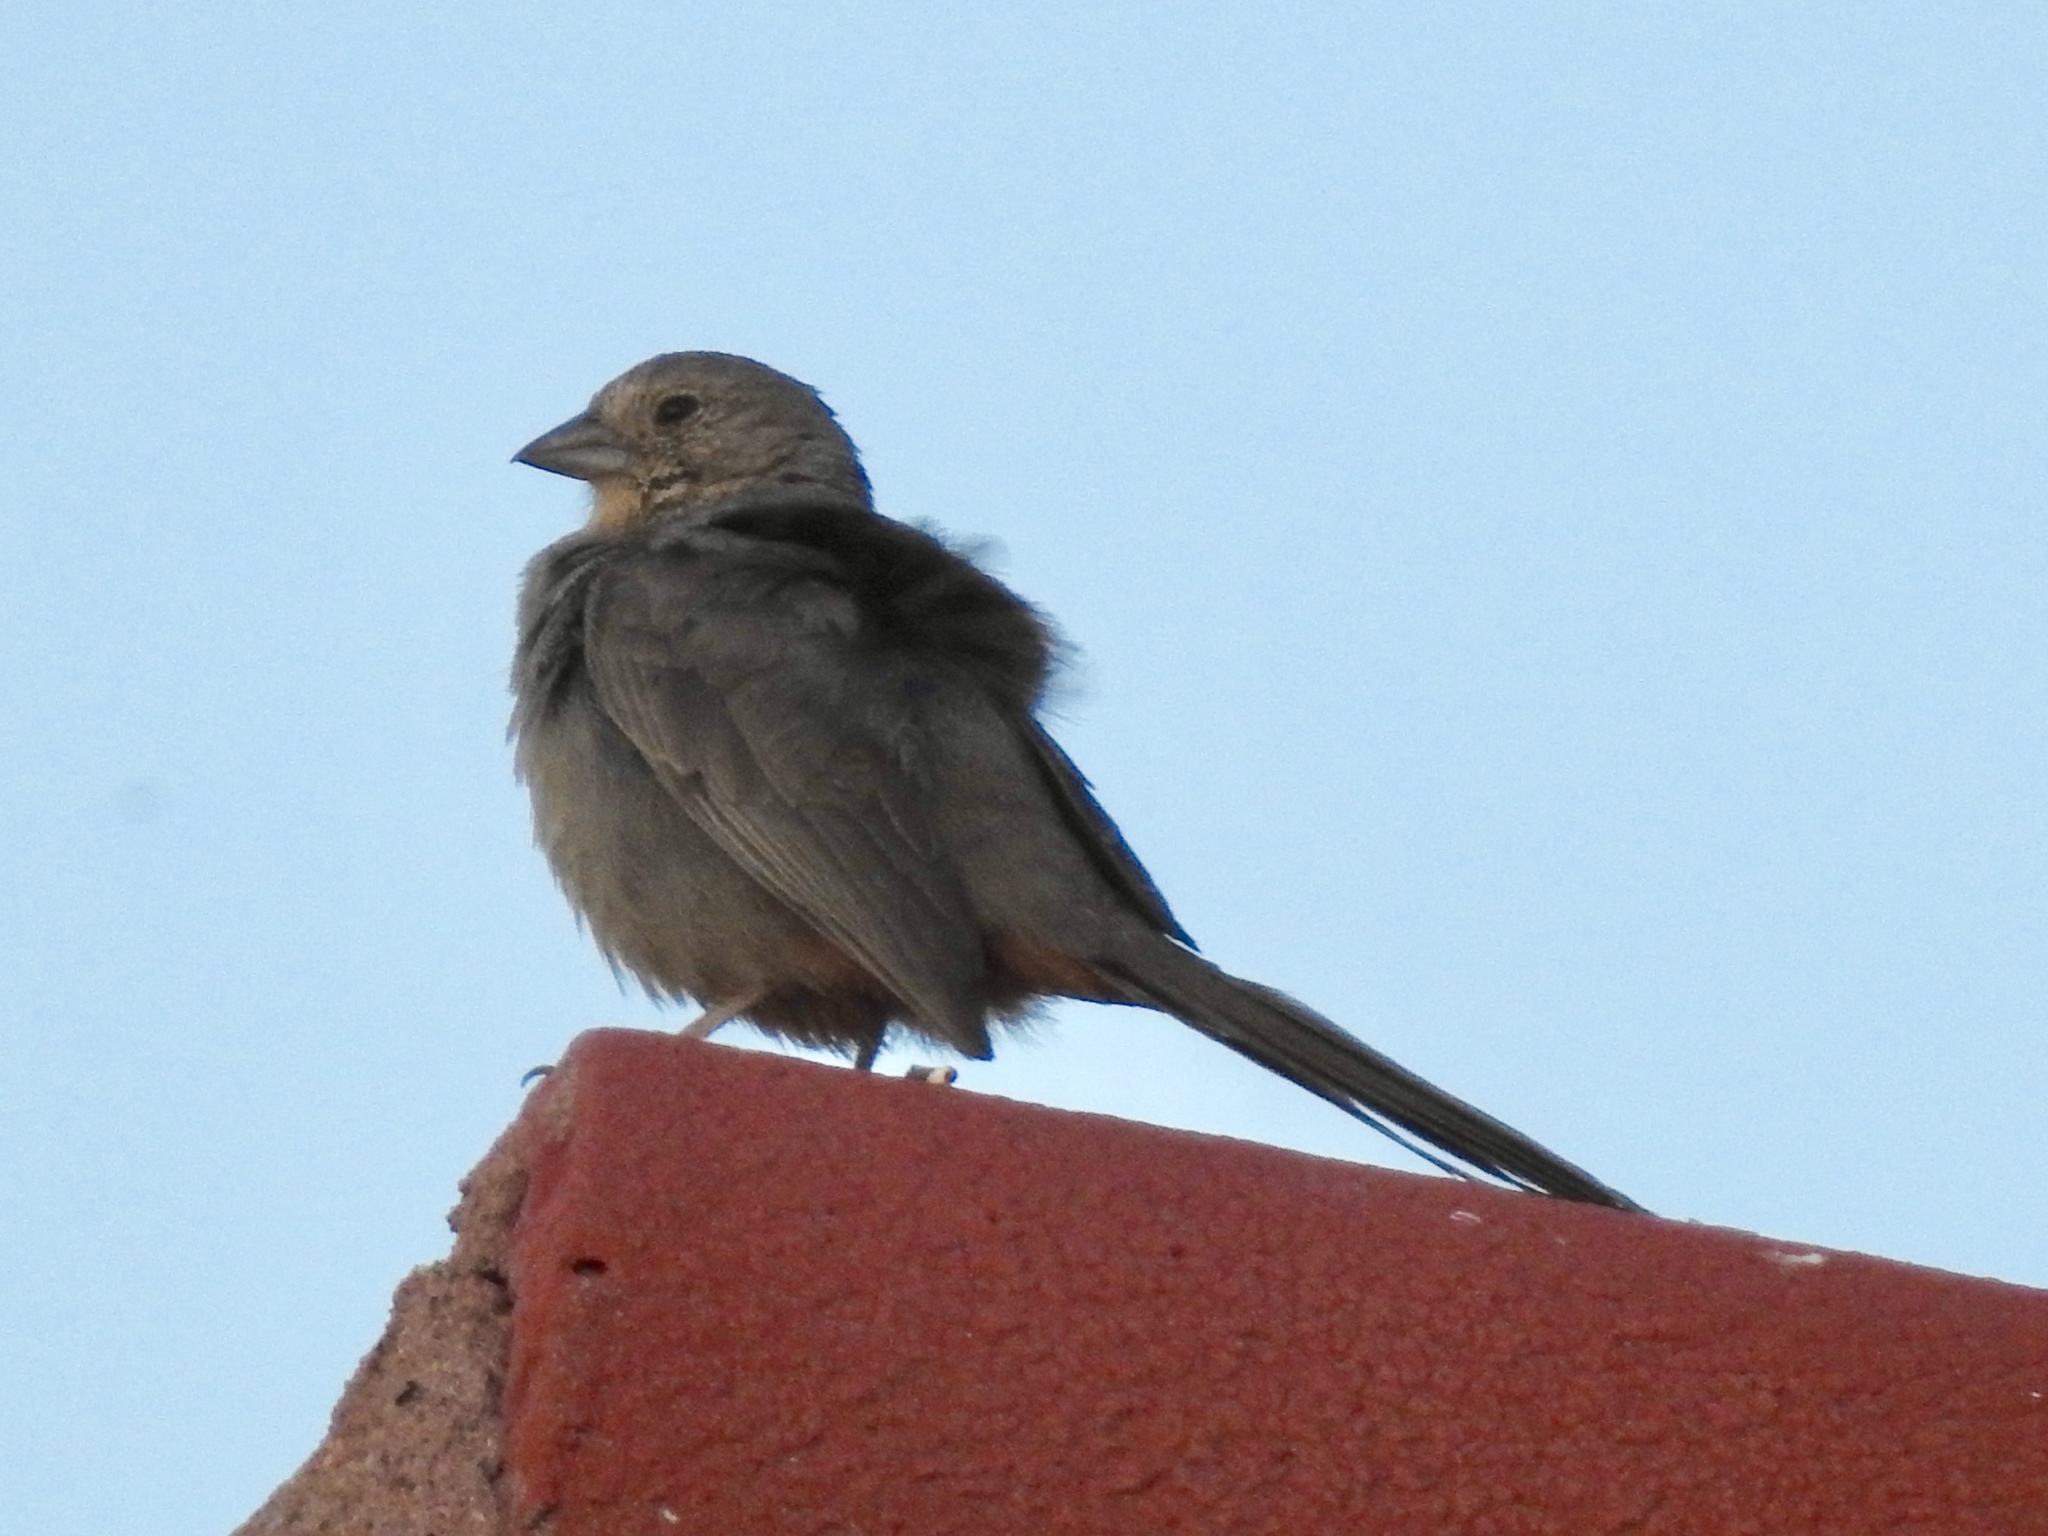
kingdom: Animalia
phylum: Chordata
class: Aves
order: Passeriformes
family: Passerellidae
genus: Melozone
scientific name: Melozone fusca
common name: Canyon towhee
